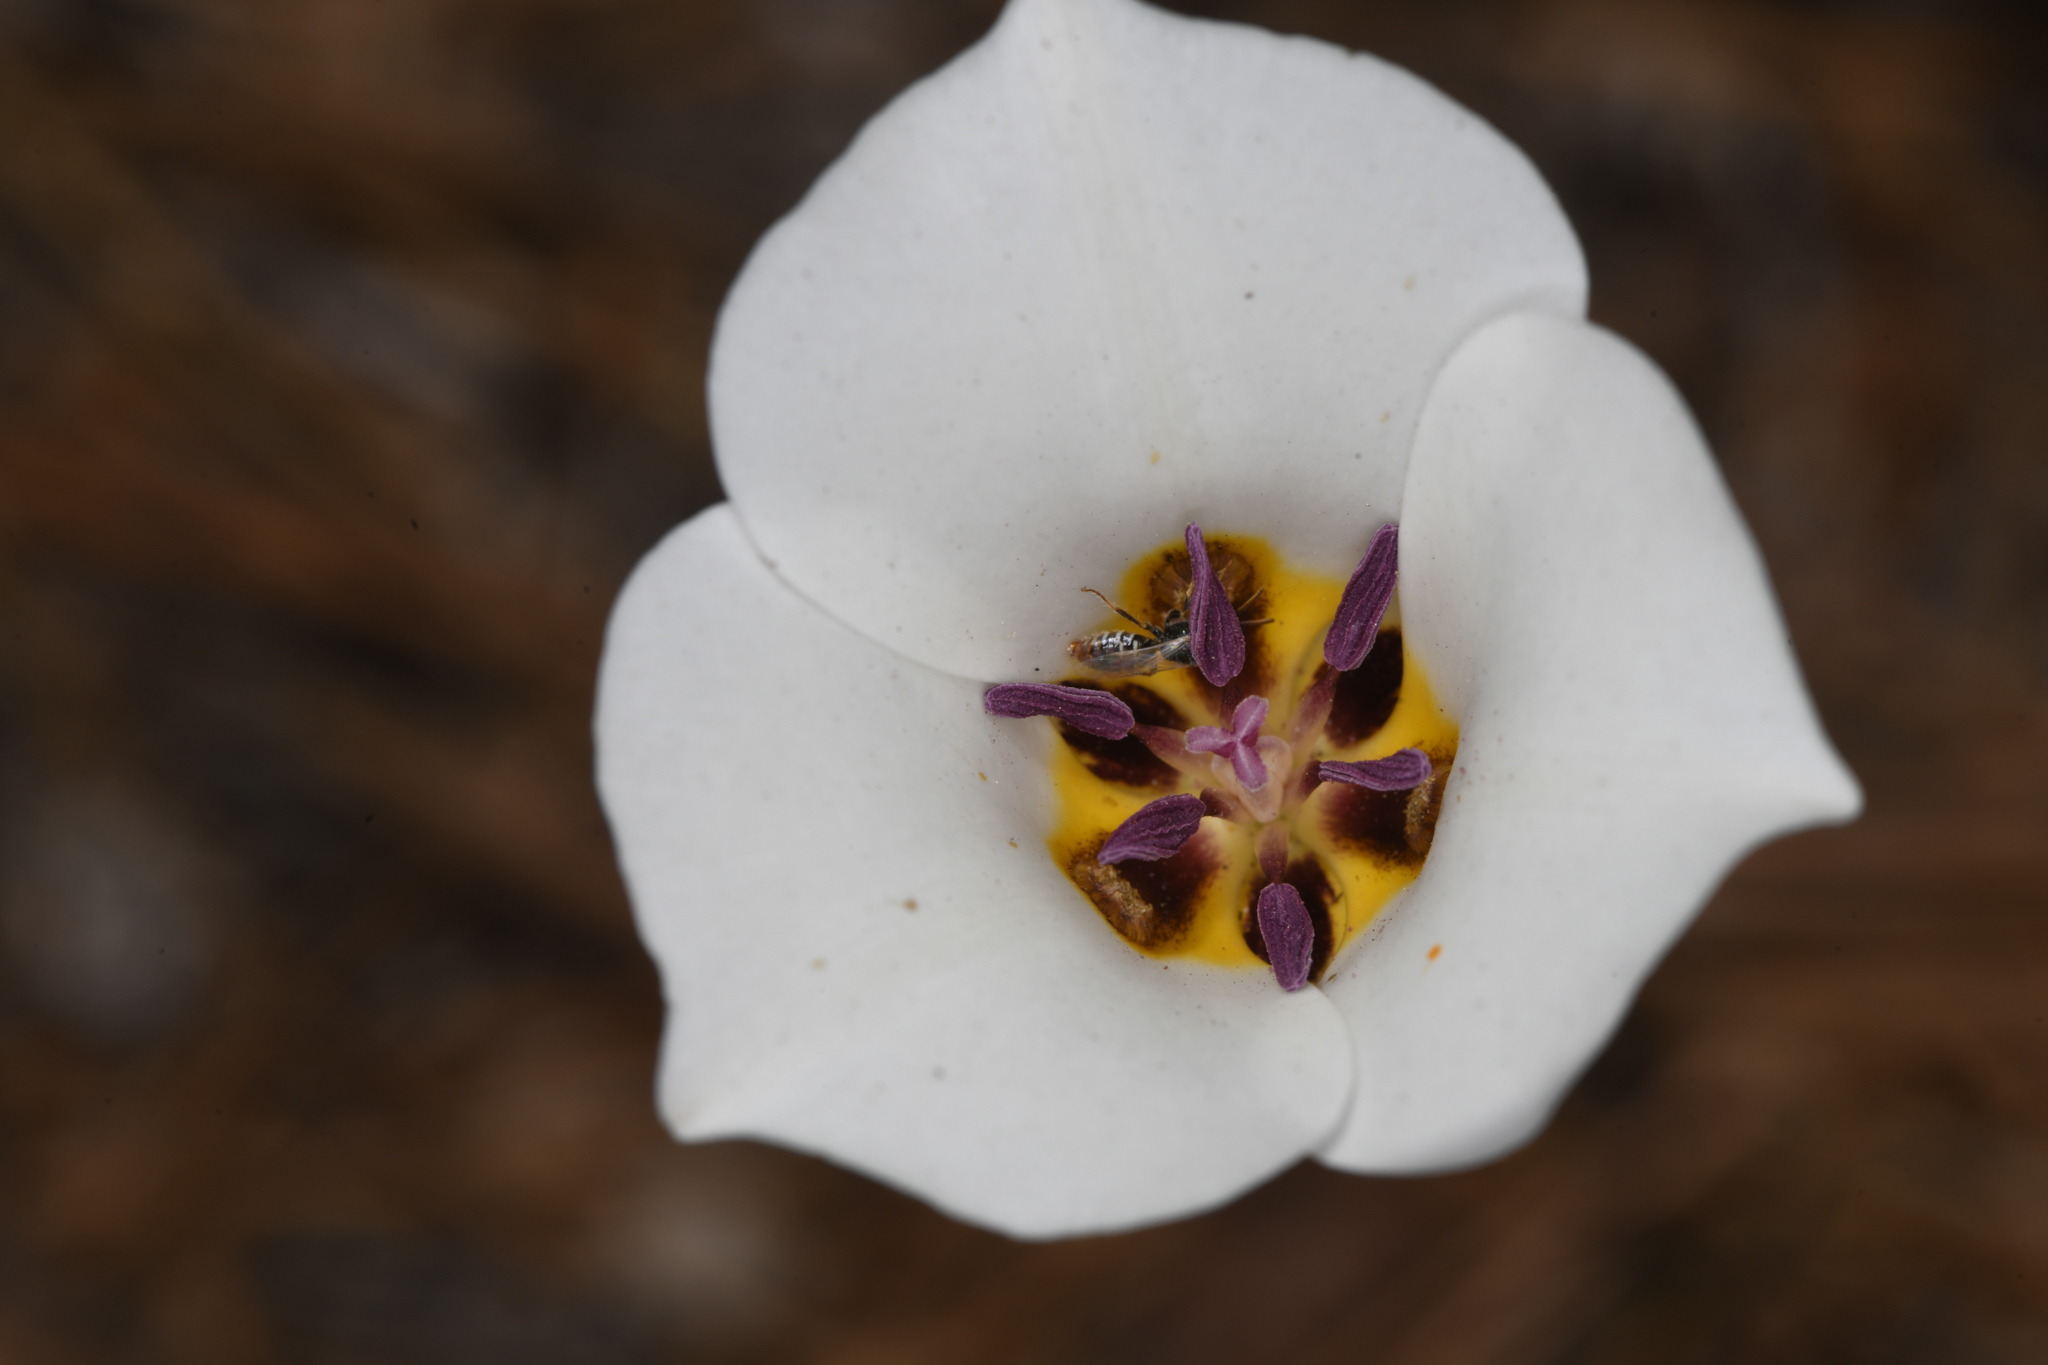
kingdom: Plantae
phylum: Tracheophyta
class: Liliopsida
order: Liliales
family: Liliaceae
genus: Calochortus
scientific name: Calochortus bruneaunis
